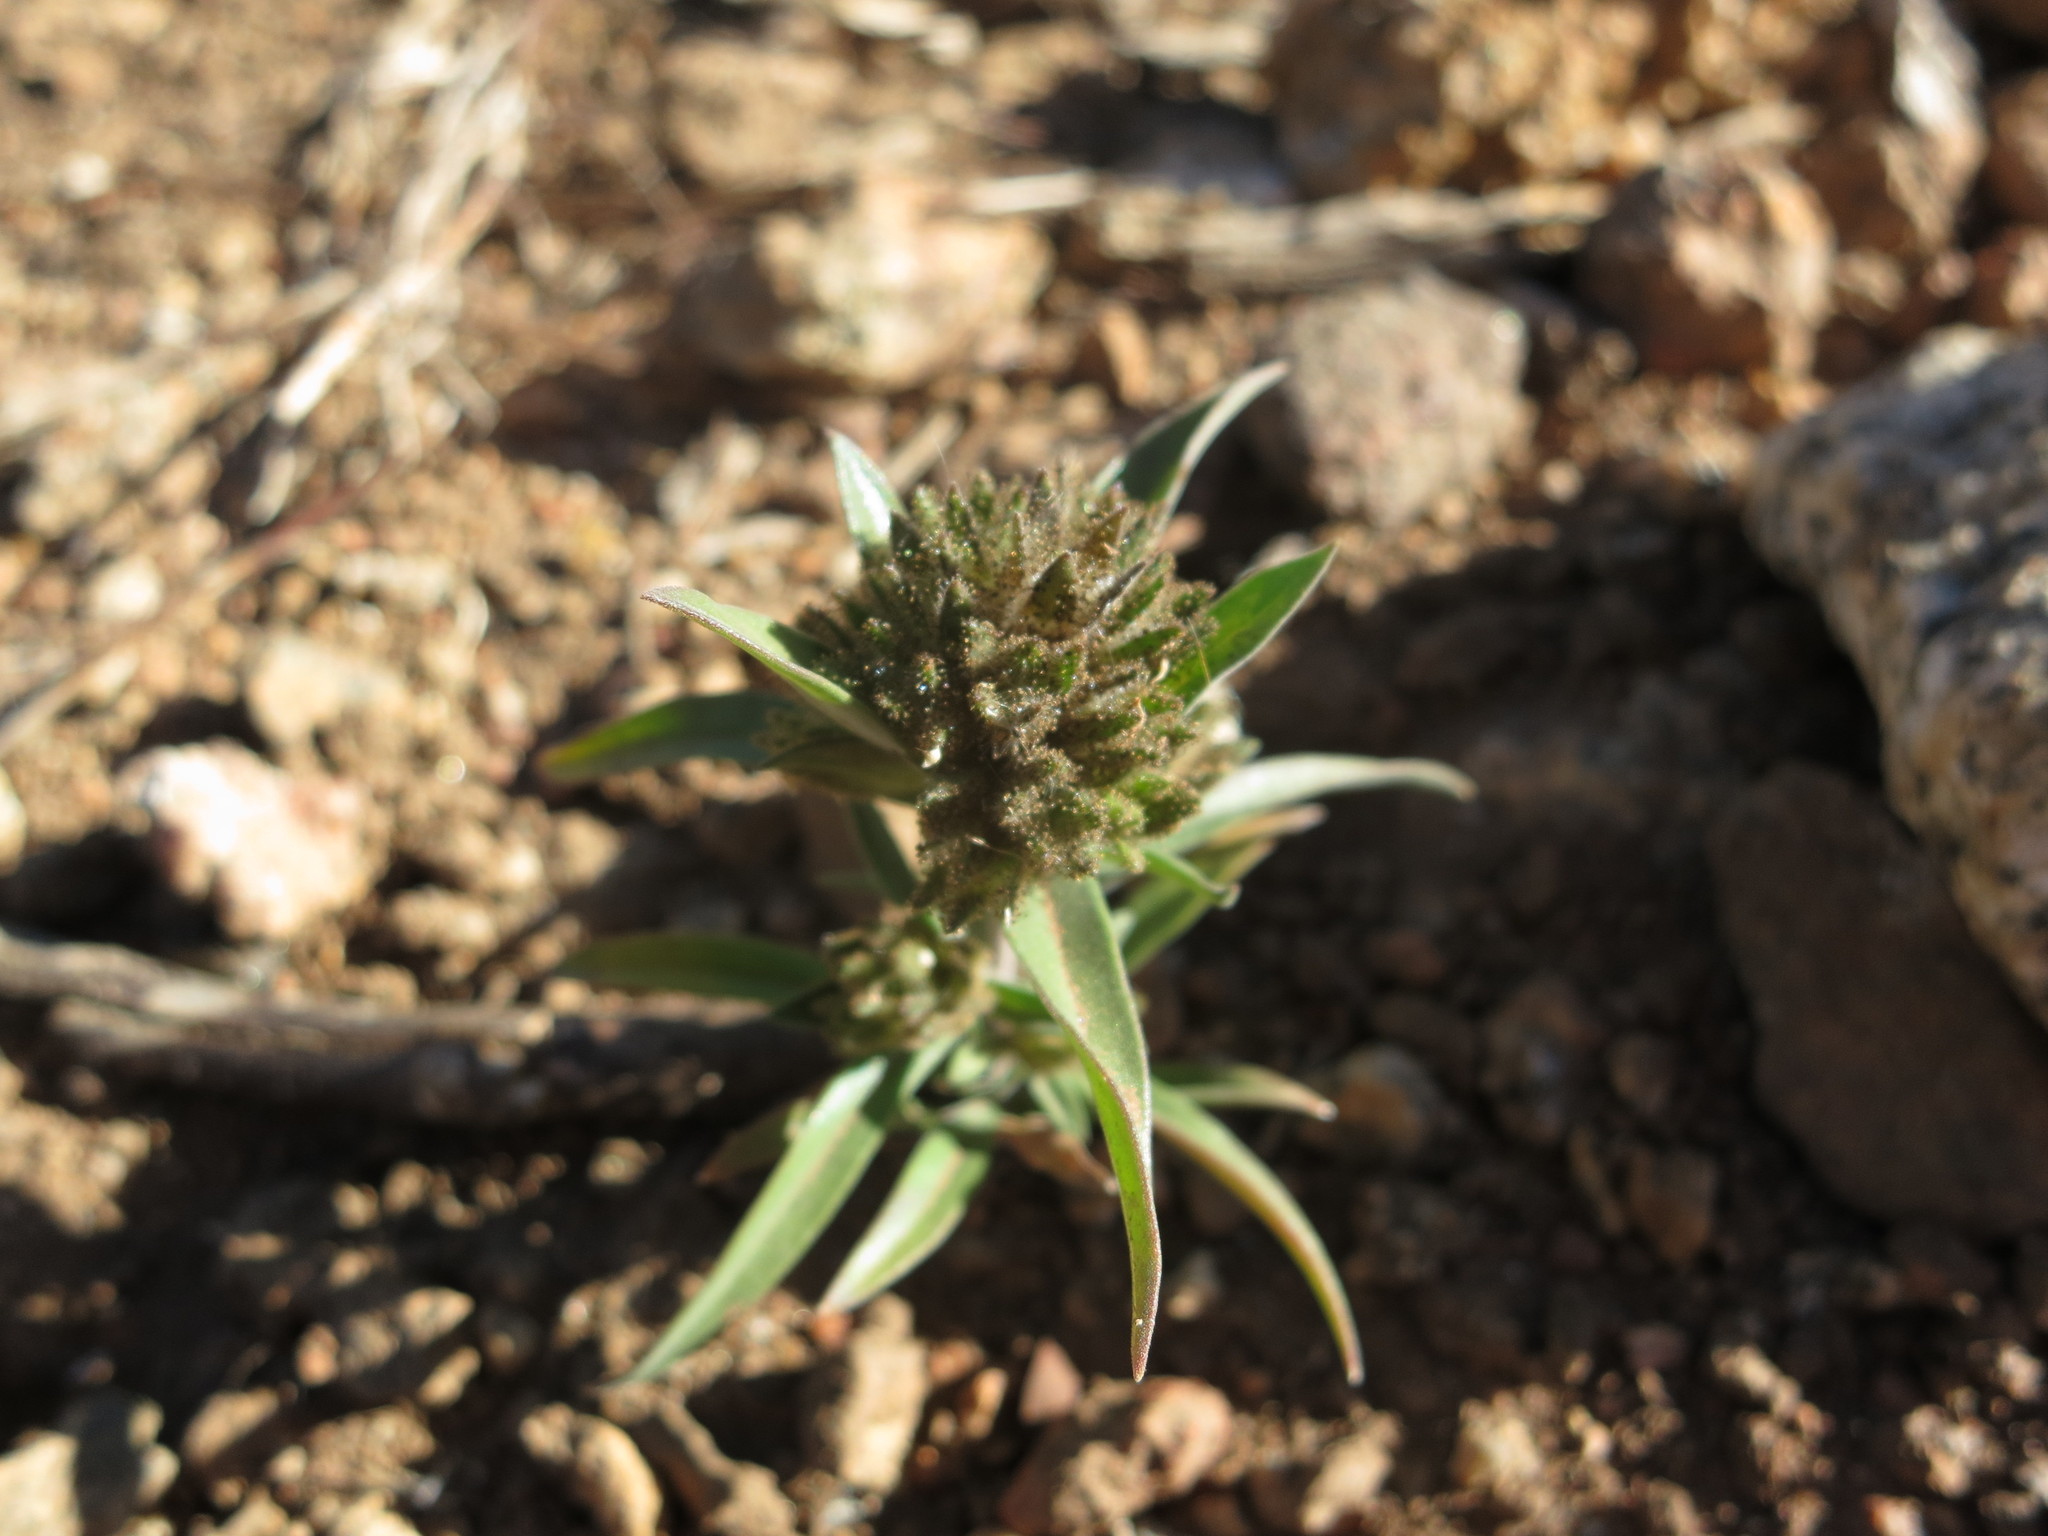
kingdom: Plantae
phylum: Tracheophyta
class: Magnoliopsida
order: Ericales
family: Polemoniaceae
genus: Collomia
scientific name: Collomia grandiflora
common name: California strawflower
